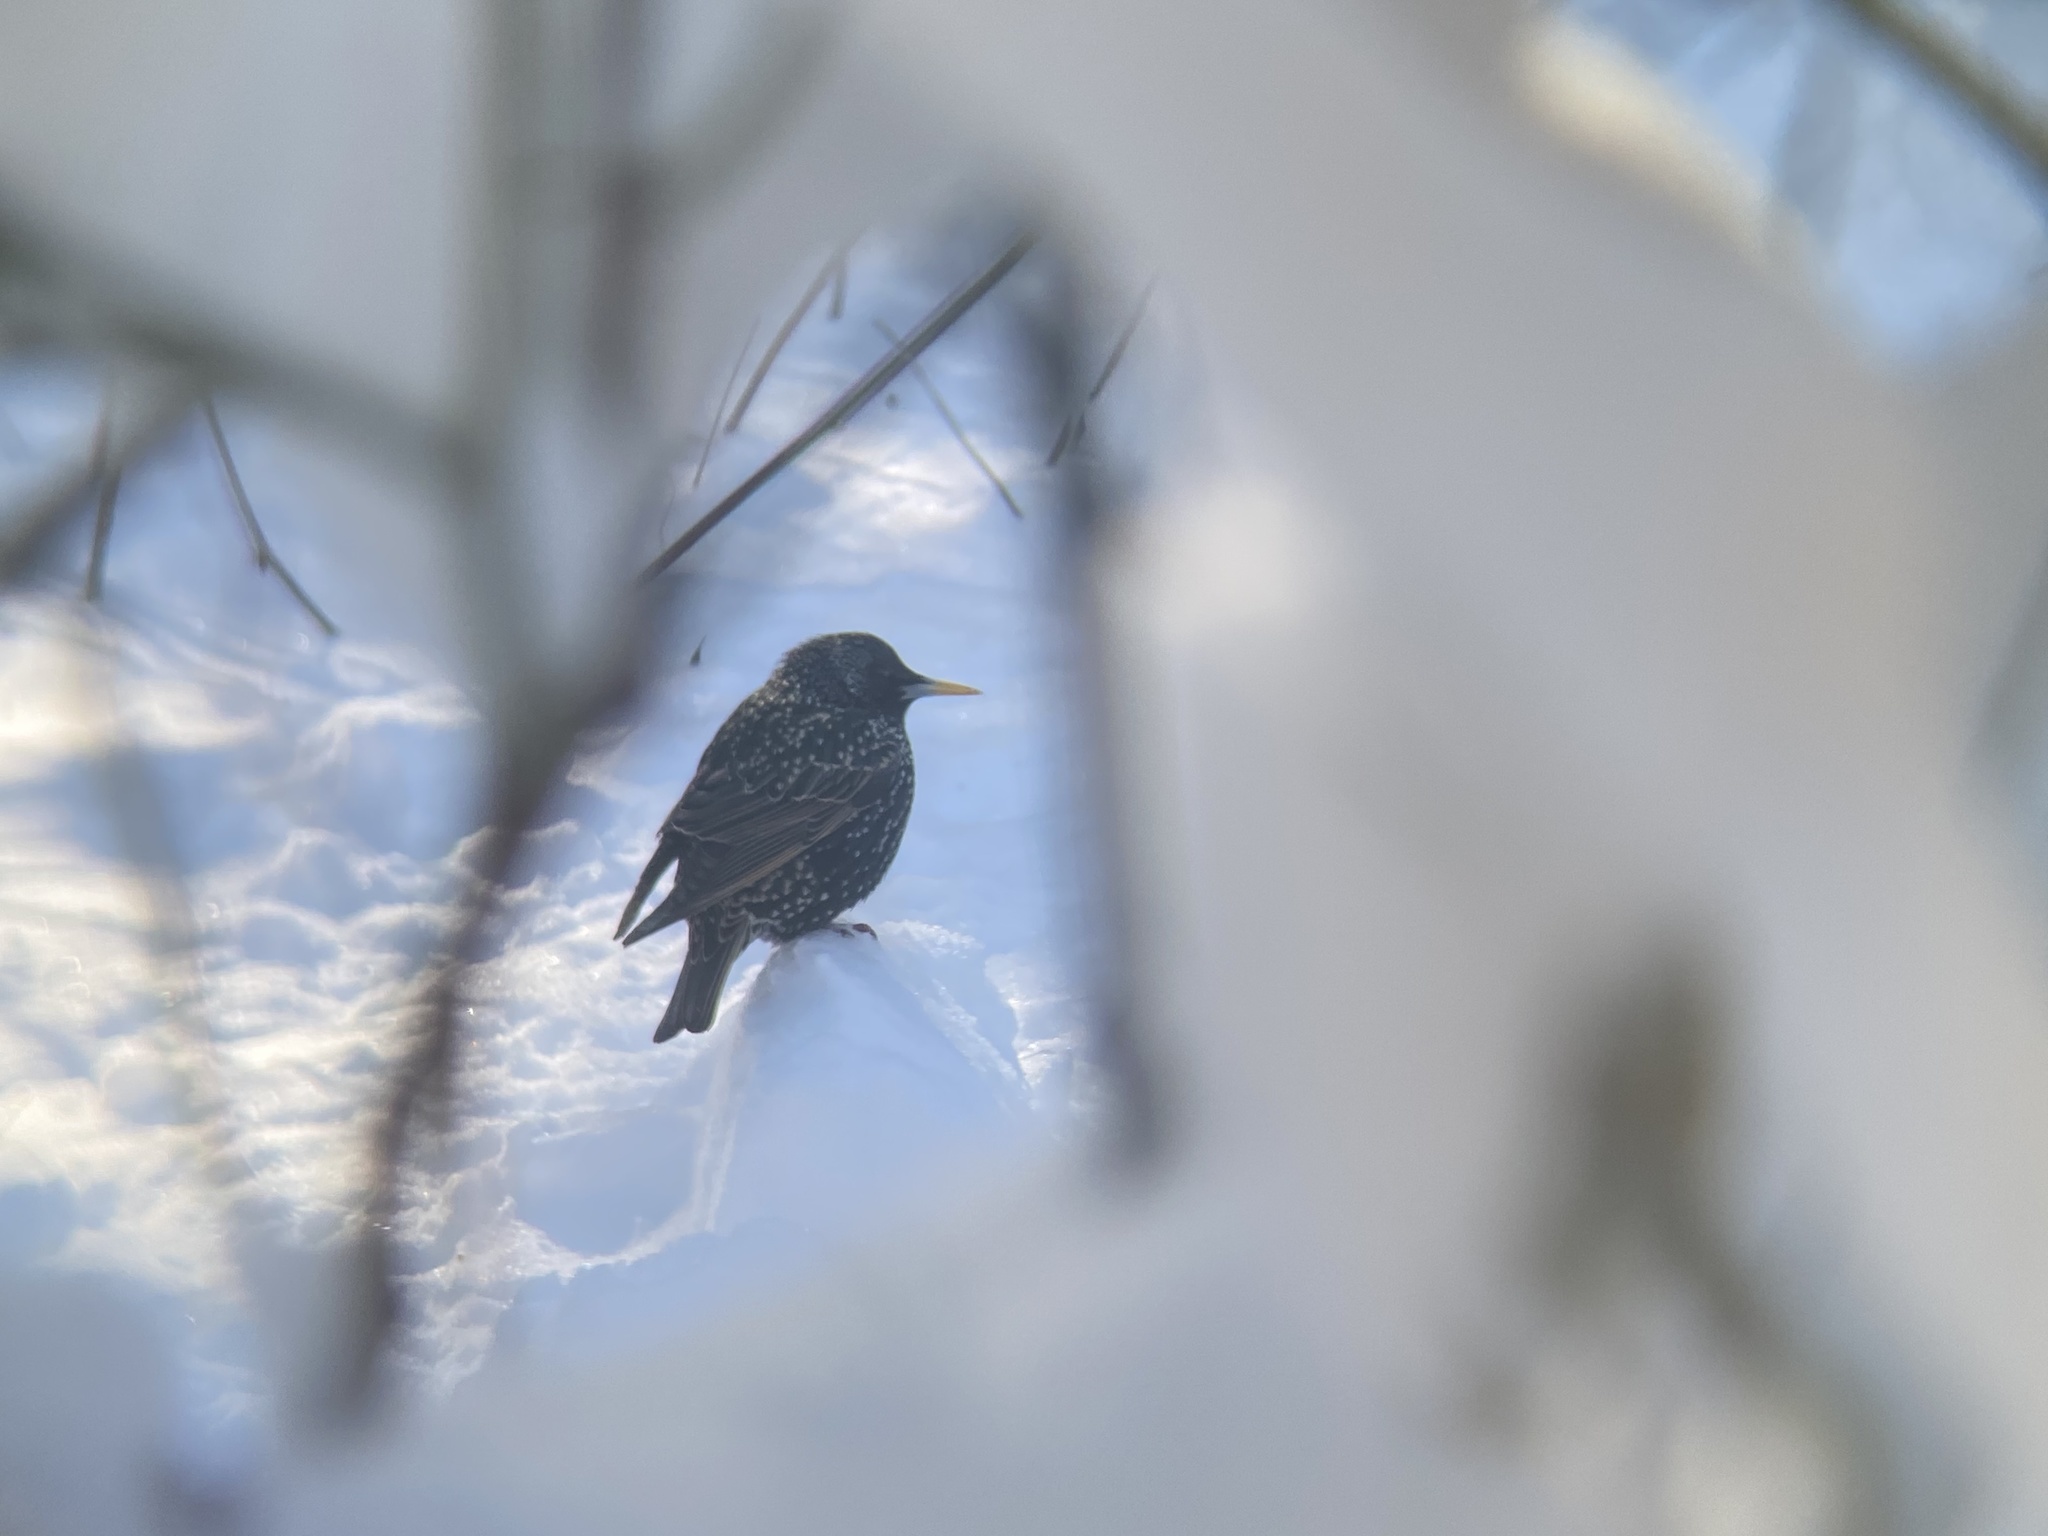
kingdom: Animalia
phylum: Chordata
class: Aves
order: Passeriformes
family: Sturnidae
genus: Sturnus
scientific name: Sturnus vulgaris
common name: Common starling
